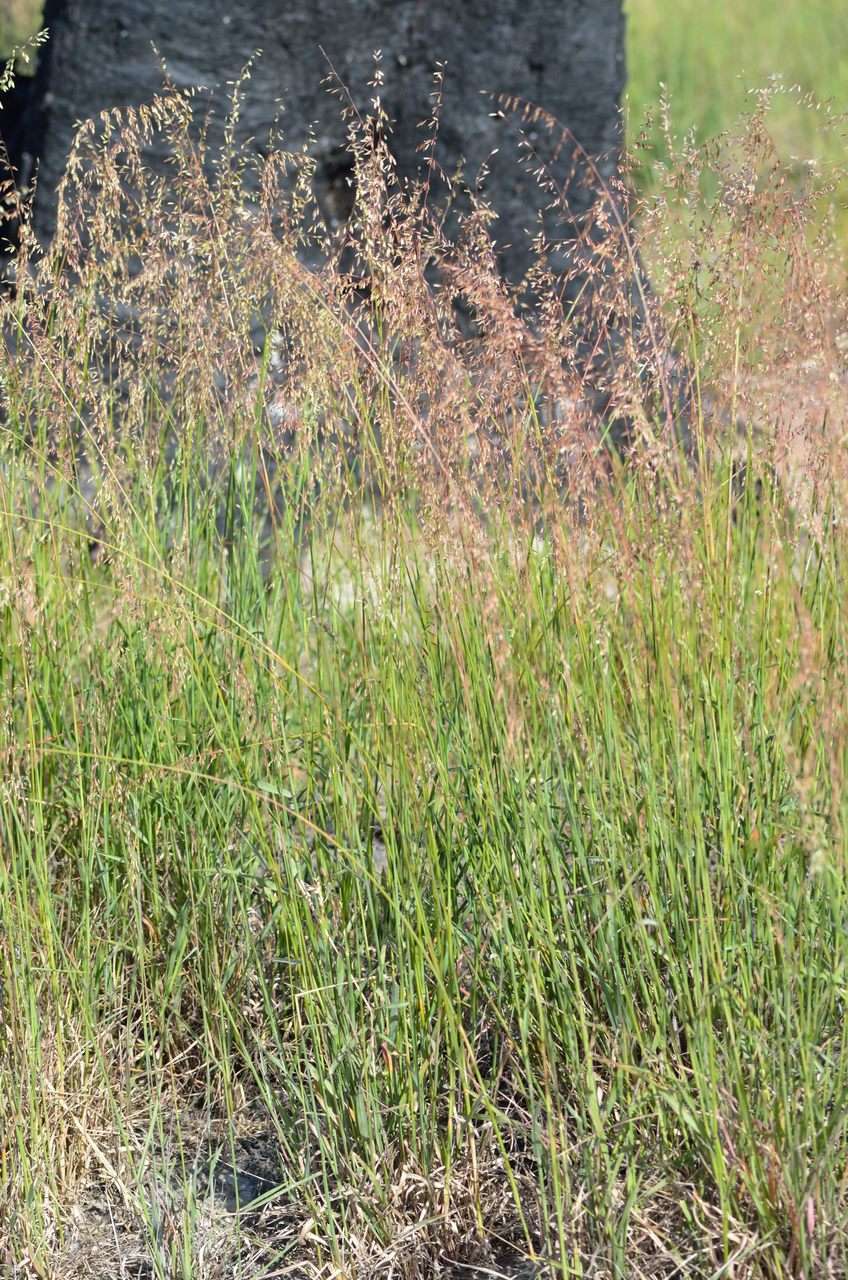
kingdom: Plantae
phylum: Tracheophyta
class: Liliopsida
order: Poales
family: Poaceae
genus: Ehrharta
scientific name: Ehrharta calycina
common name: Perennial veldtgrass
